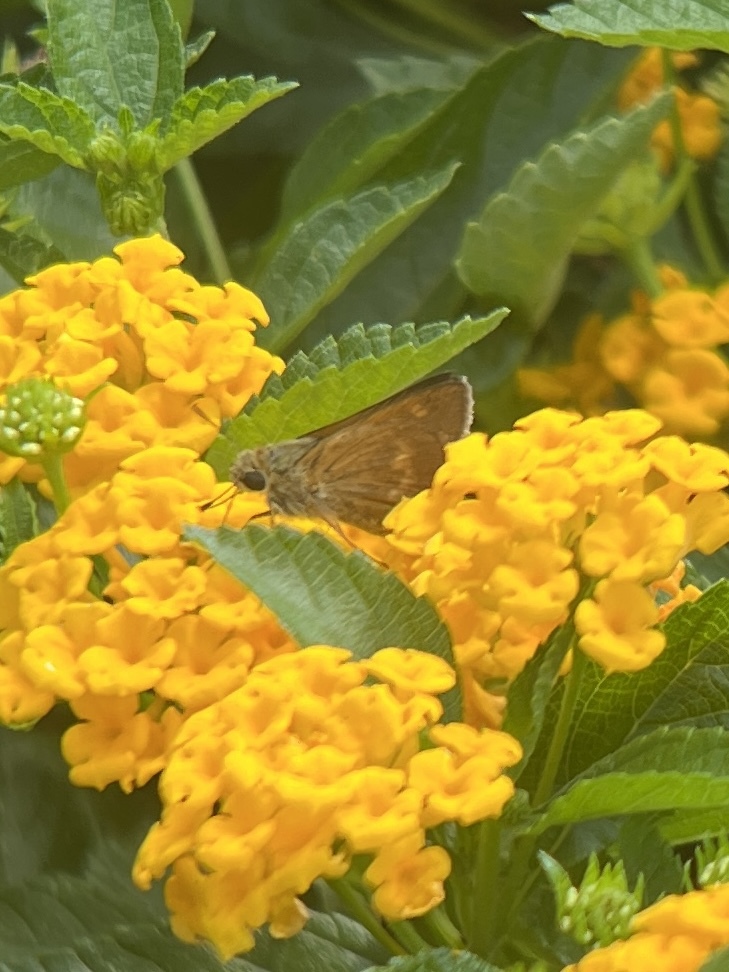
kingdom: Animalia
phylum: Arthropoda
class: Insecta
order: Lepidoptera
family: Hesperiidae
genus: Polites
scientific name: Polites otho
